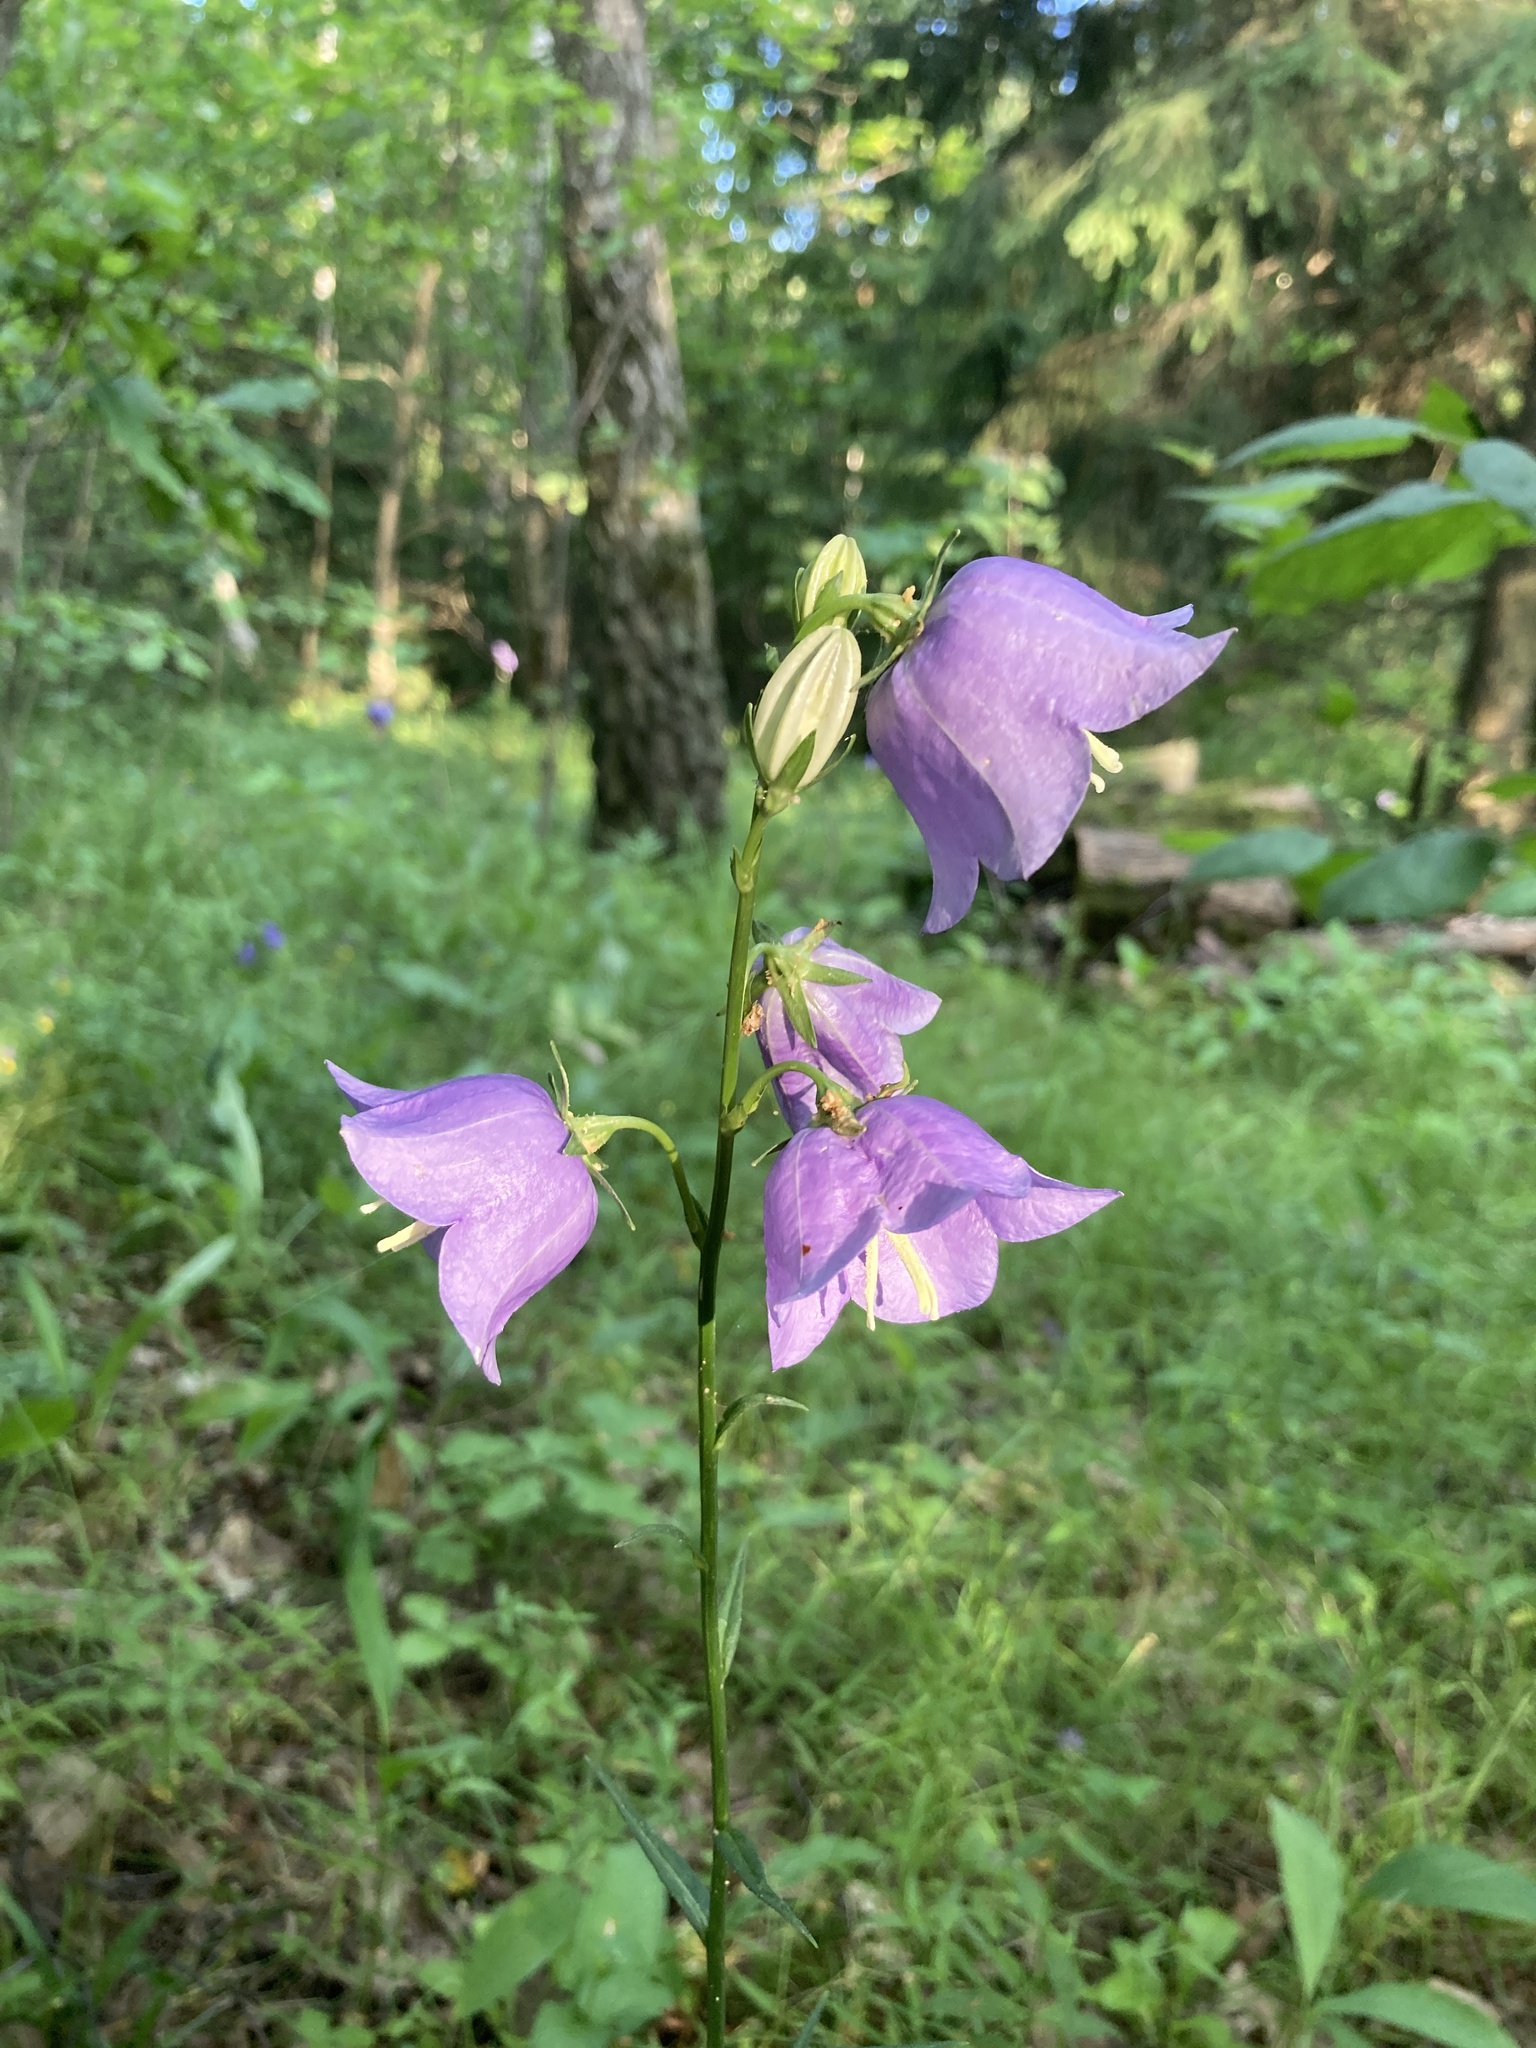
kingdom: Plantae
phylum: Tracheophyta
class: Magnoliopsida
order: Asterales
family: Campanulaceae
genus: Campanula
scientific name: Campanula persicifolia
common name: Peach-leaved bellflower
